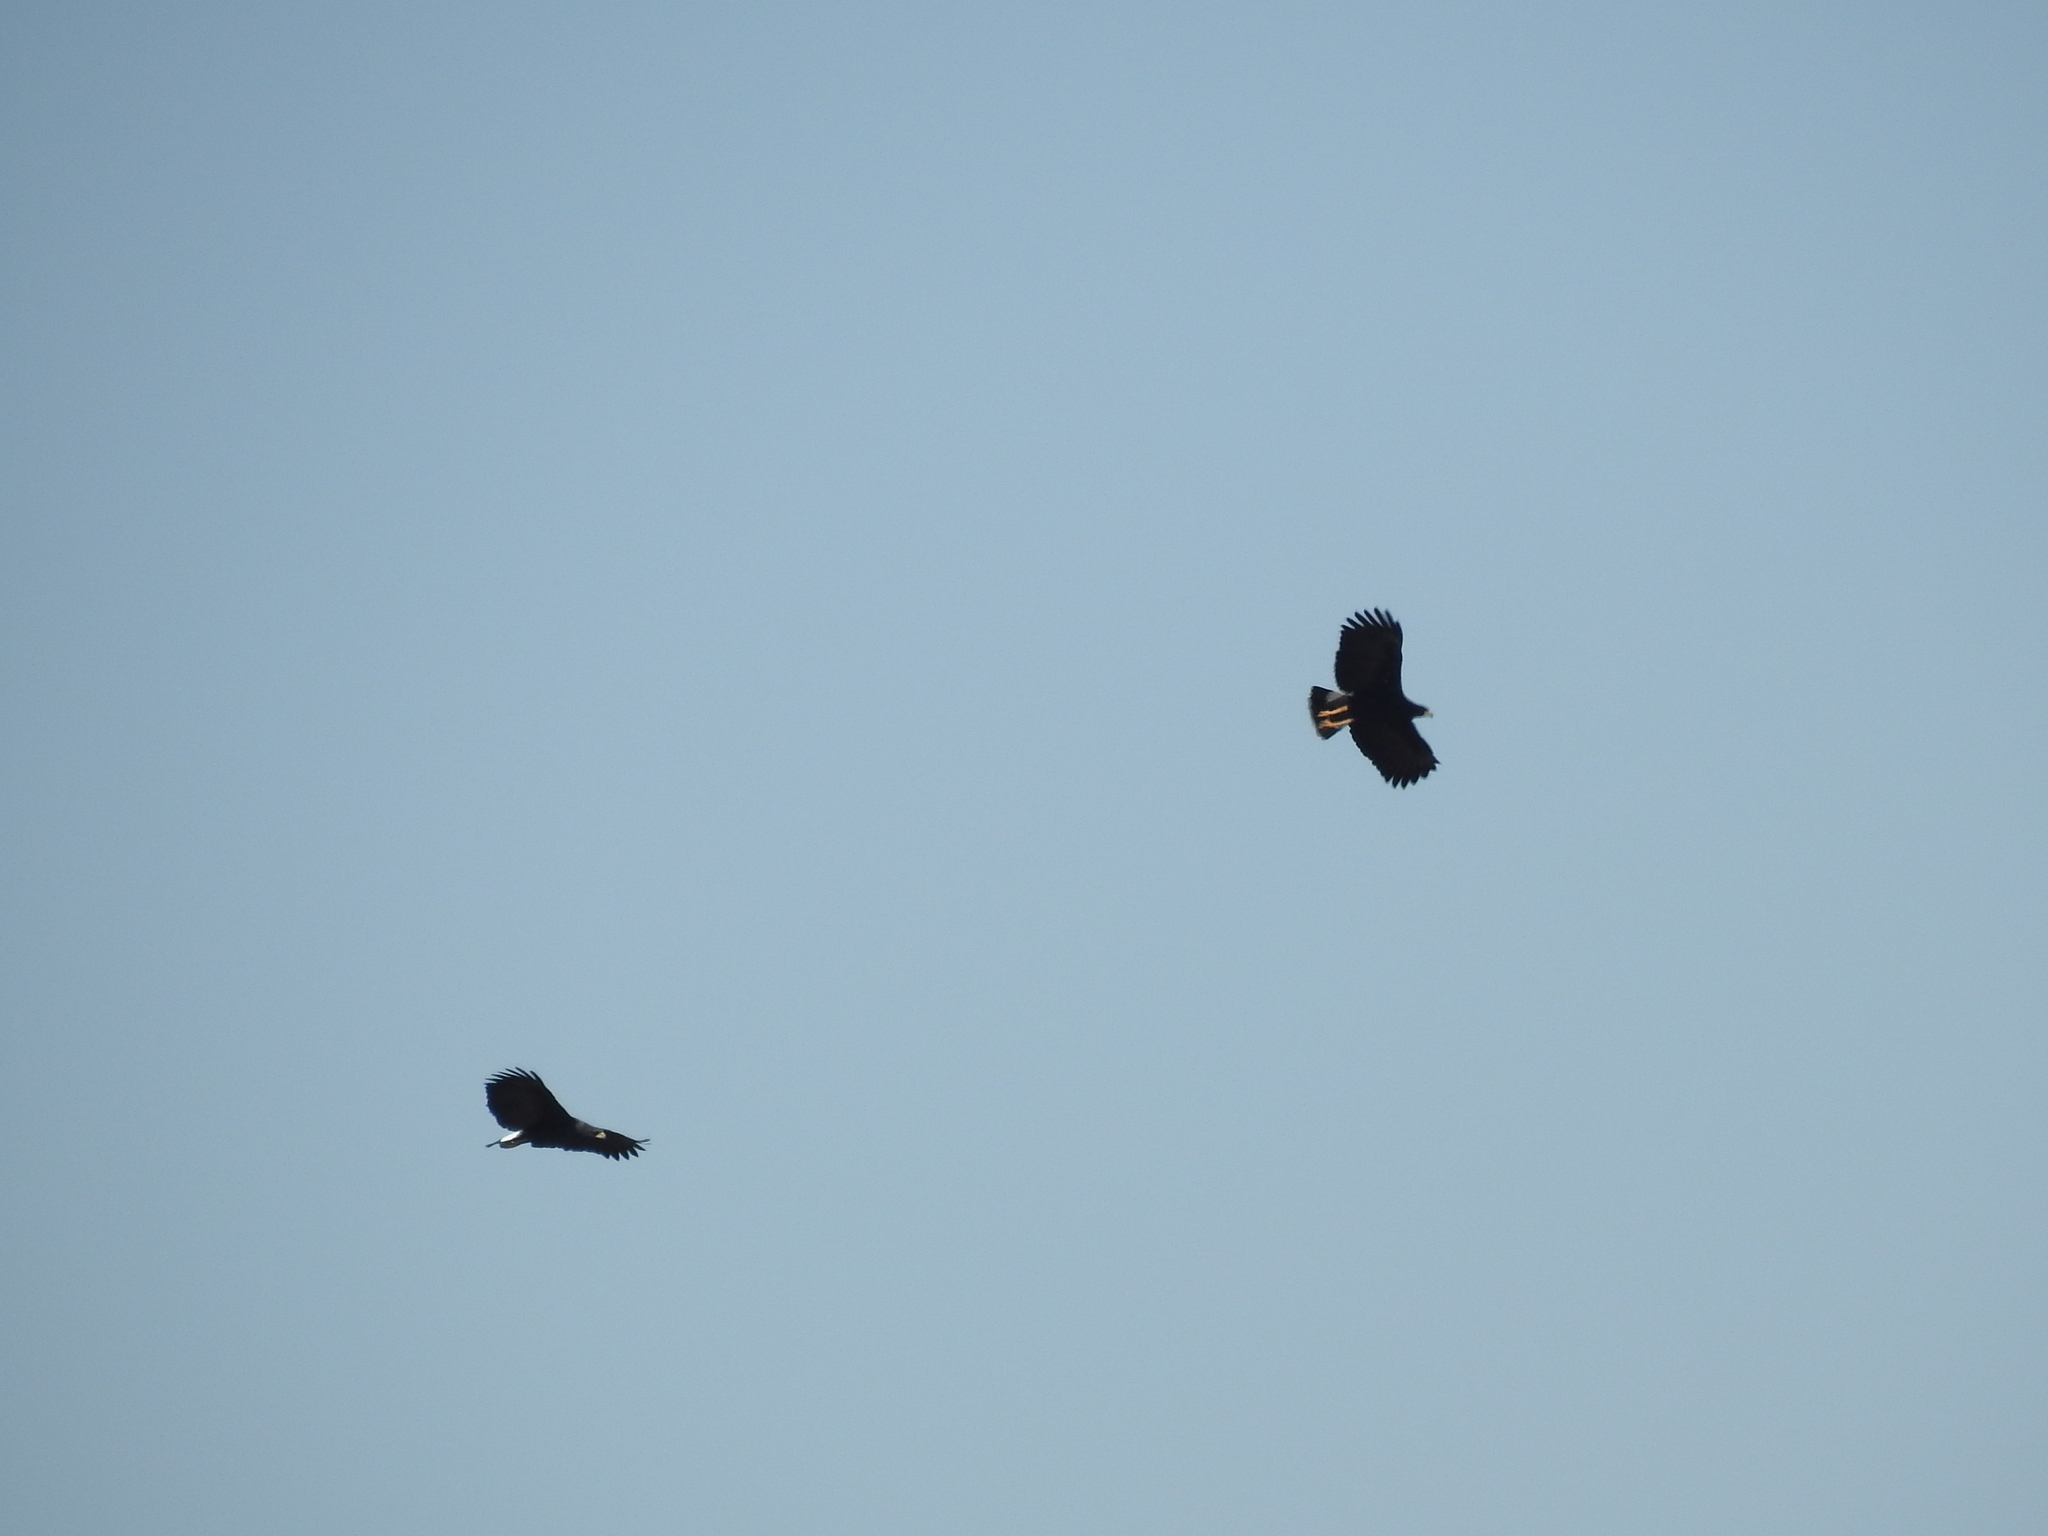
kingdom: Animalia
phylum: Chordata
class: Aves
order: Accipitriformes
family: Accipitridae
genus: Buteogallus
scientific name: Buteogallus urubitinga
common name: Great black hawk
